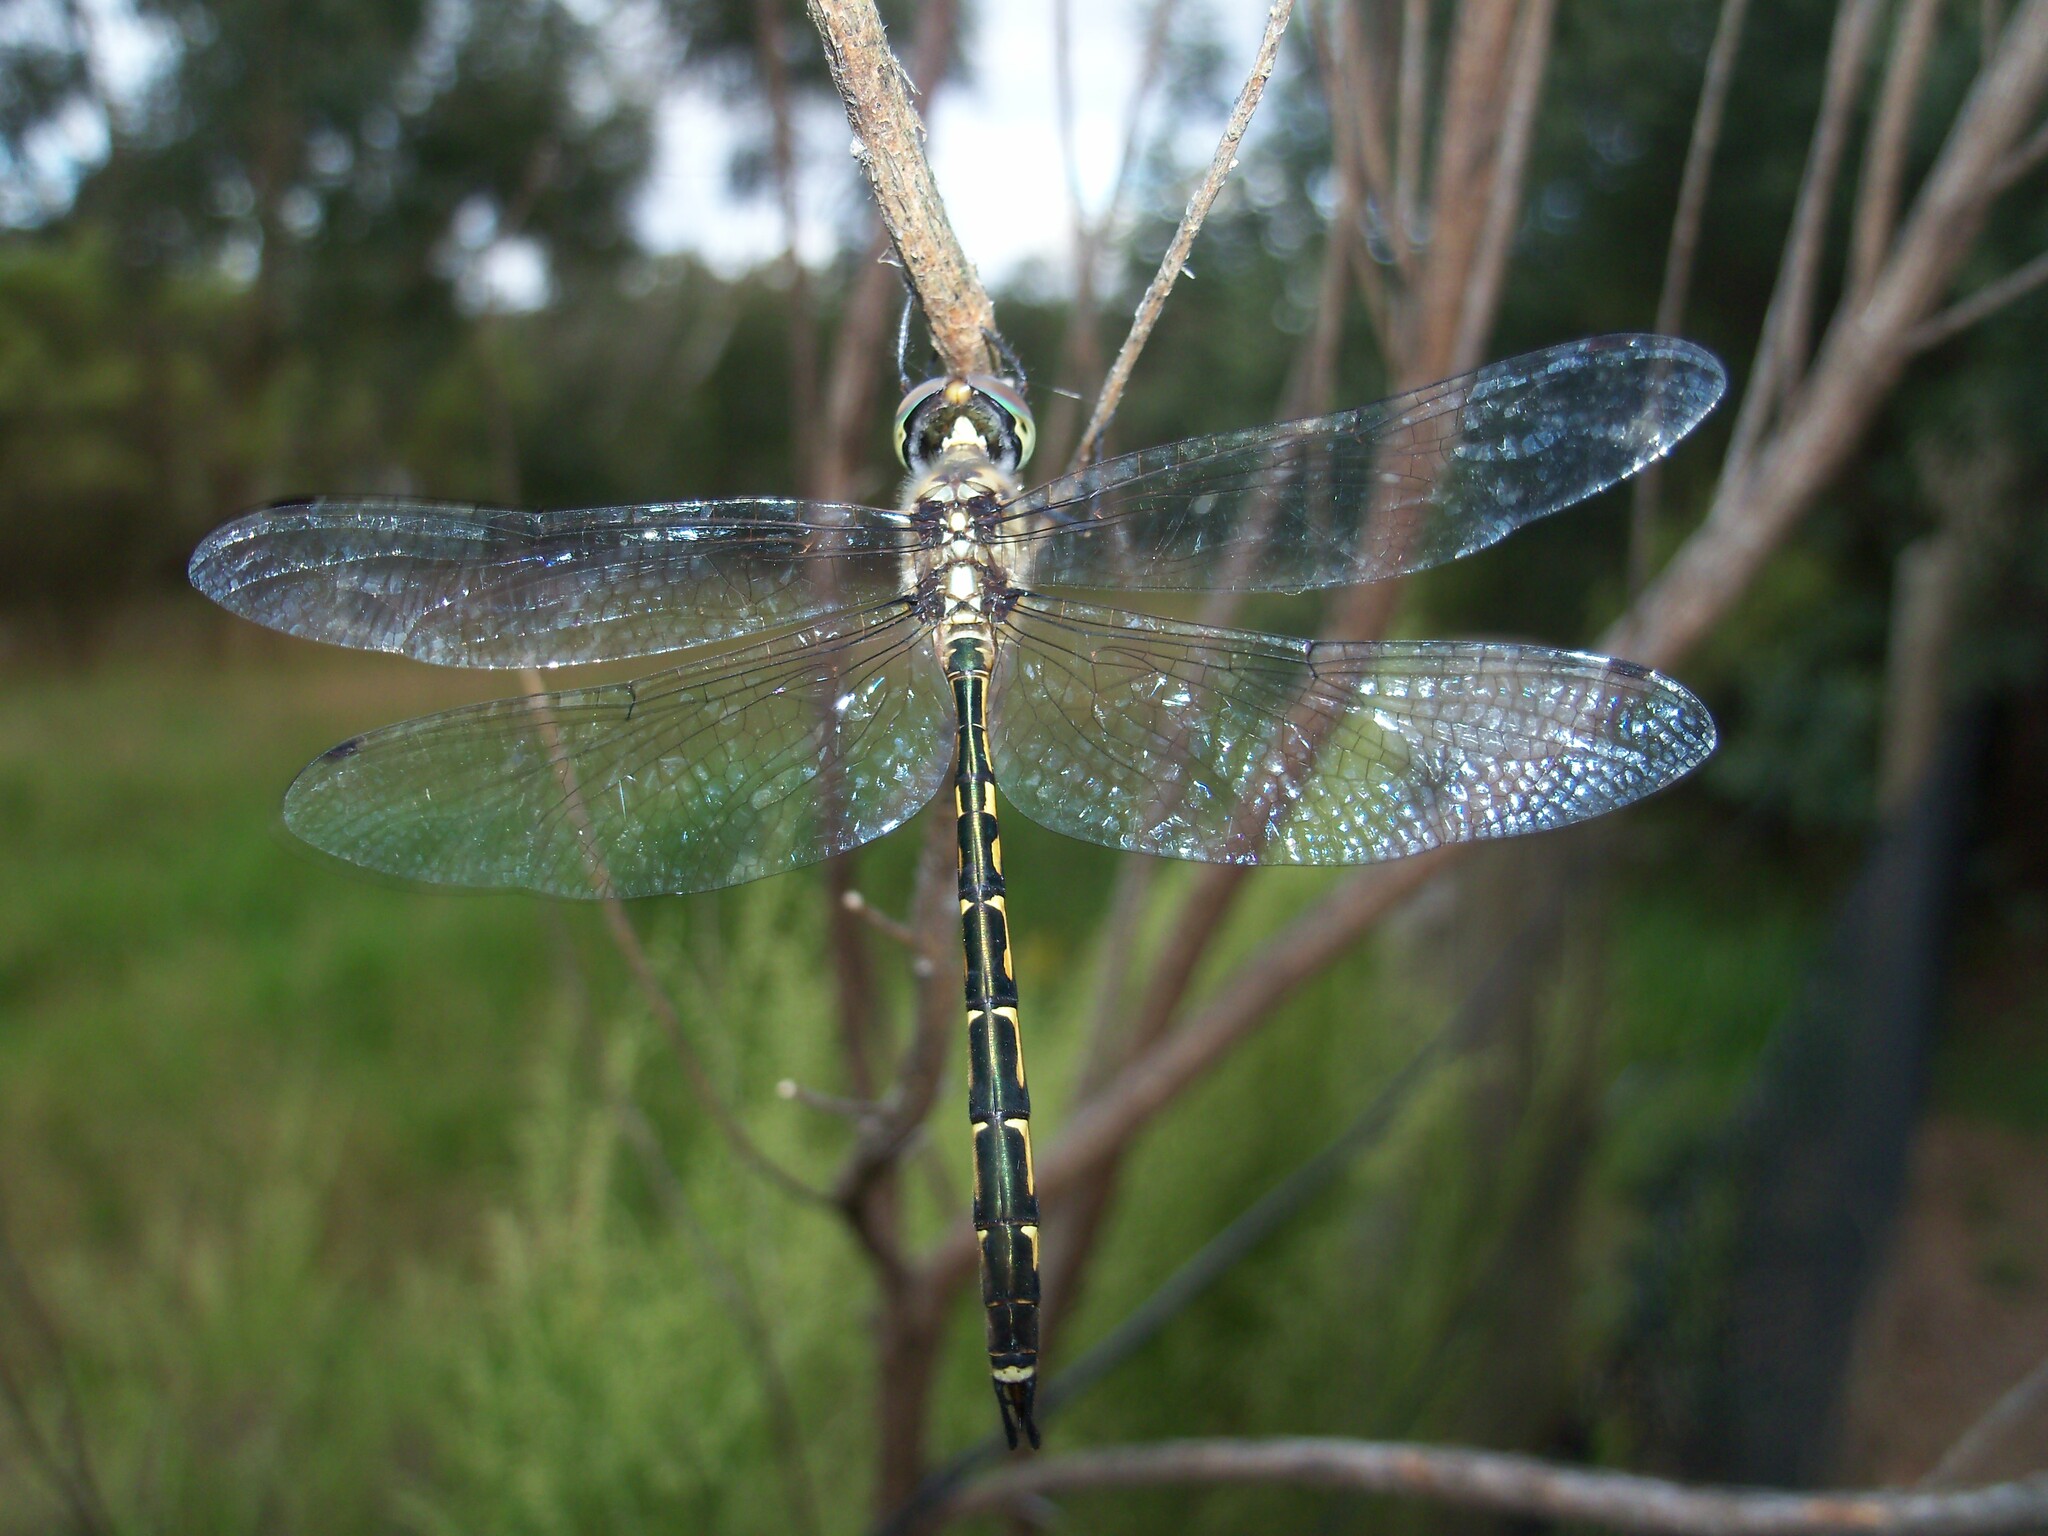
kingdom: Animalia
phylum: Arthropoda
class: Insecta
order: Odonata
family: Corduliidae
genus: Hemicordulia
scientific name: Hemicordulia australiae
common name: Sentry dragonfly
